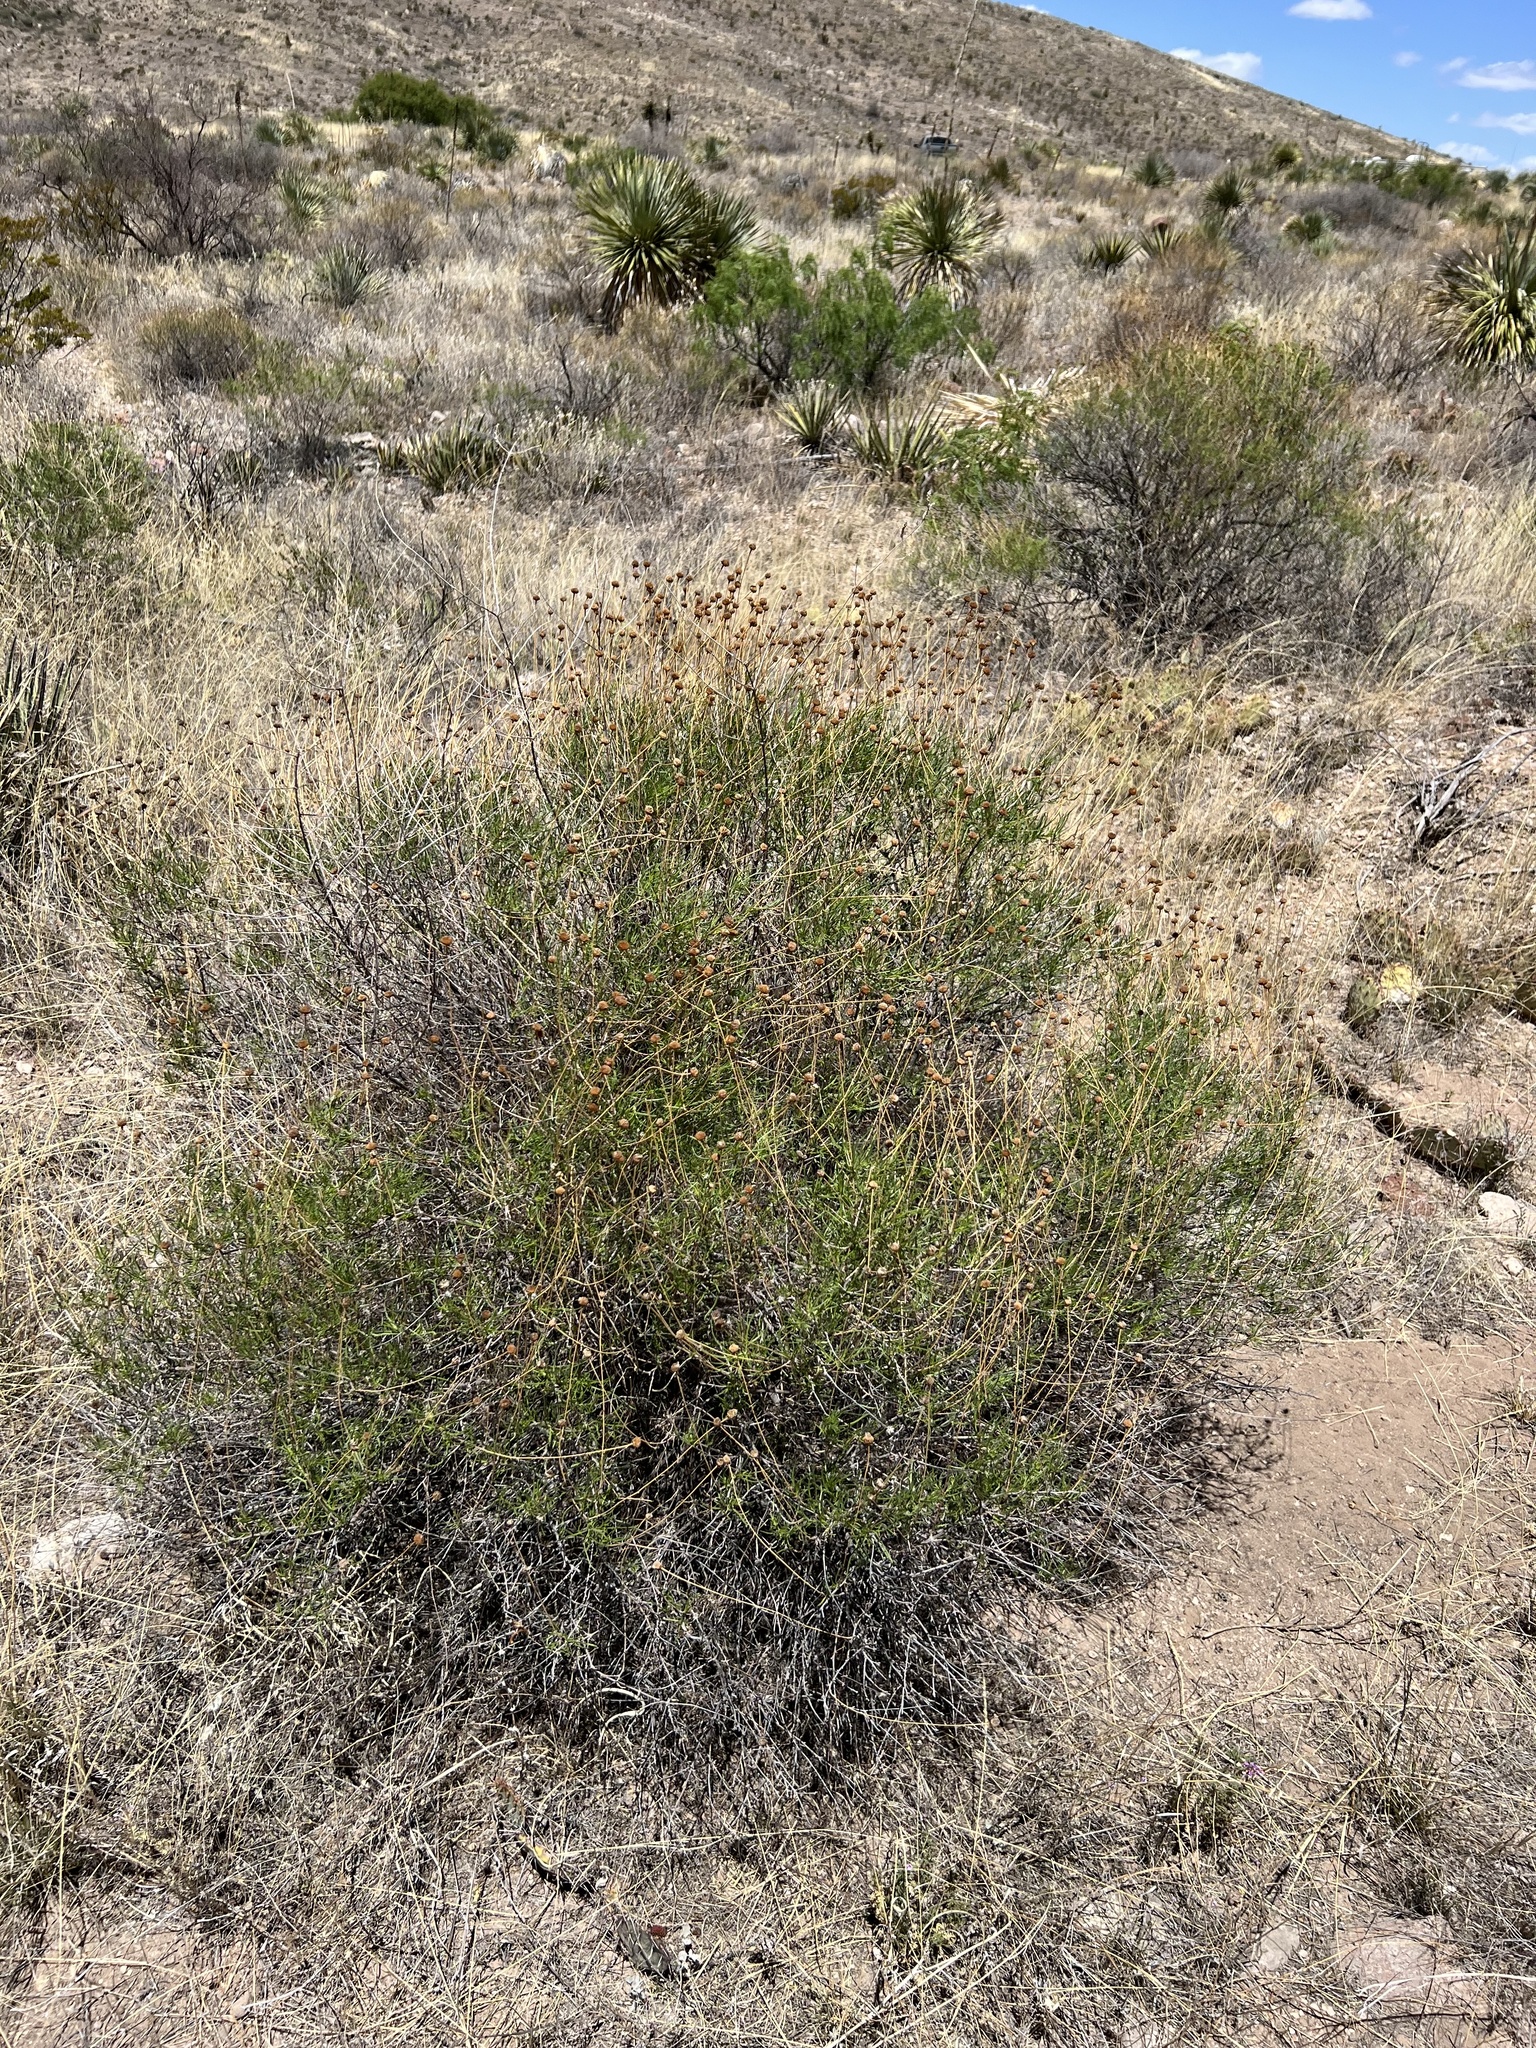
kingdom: Plantae
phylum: Tracheophyta
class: Magnoliopsida
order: Asterales
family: Asteraceae
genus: Sidneya
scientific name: Sidneya tenuifolia
